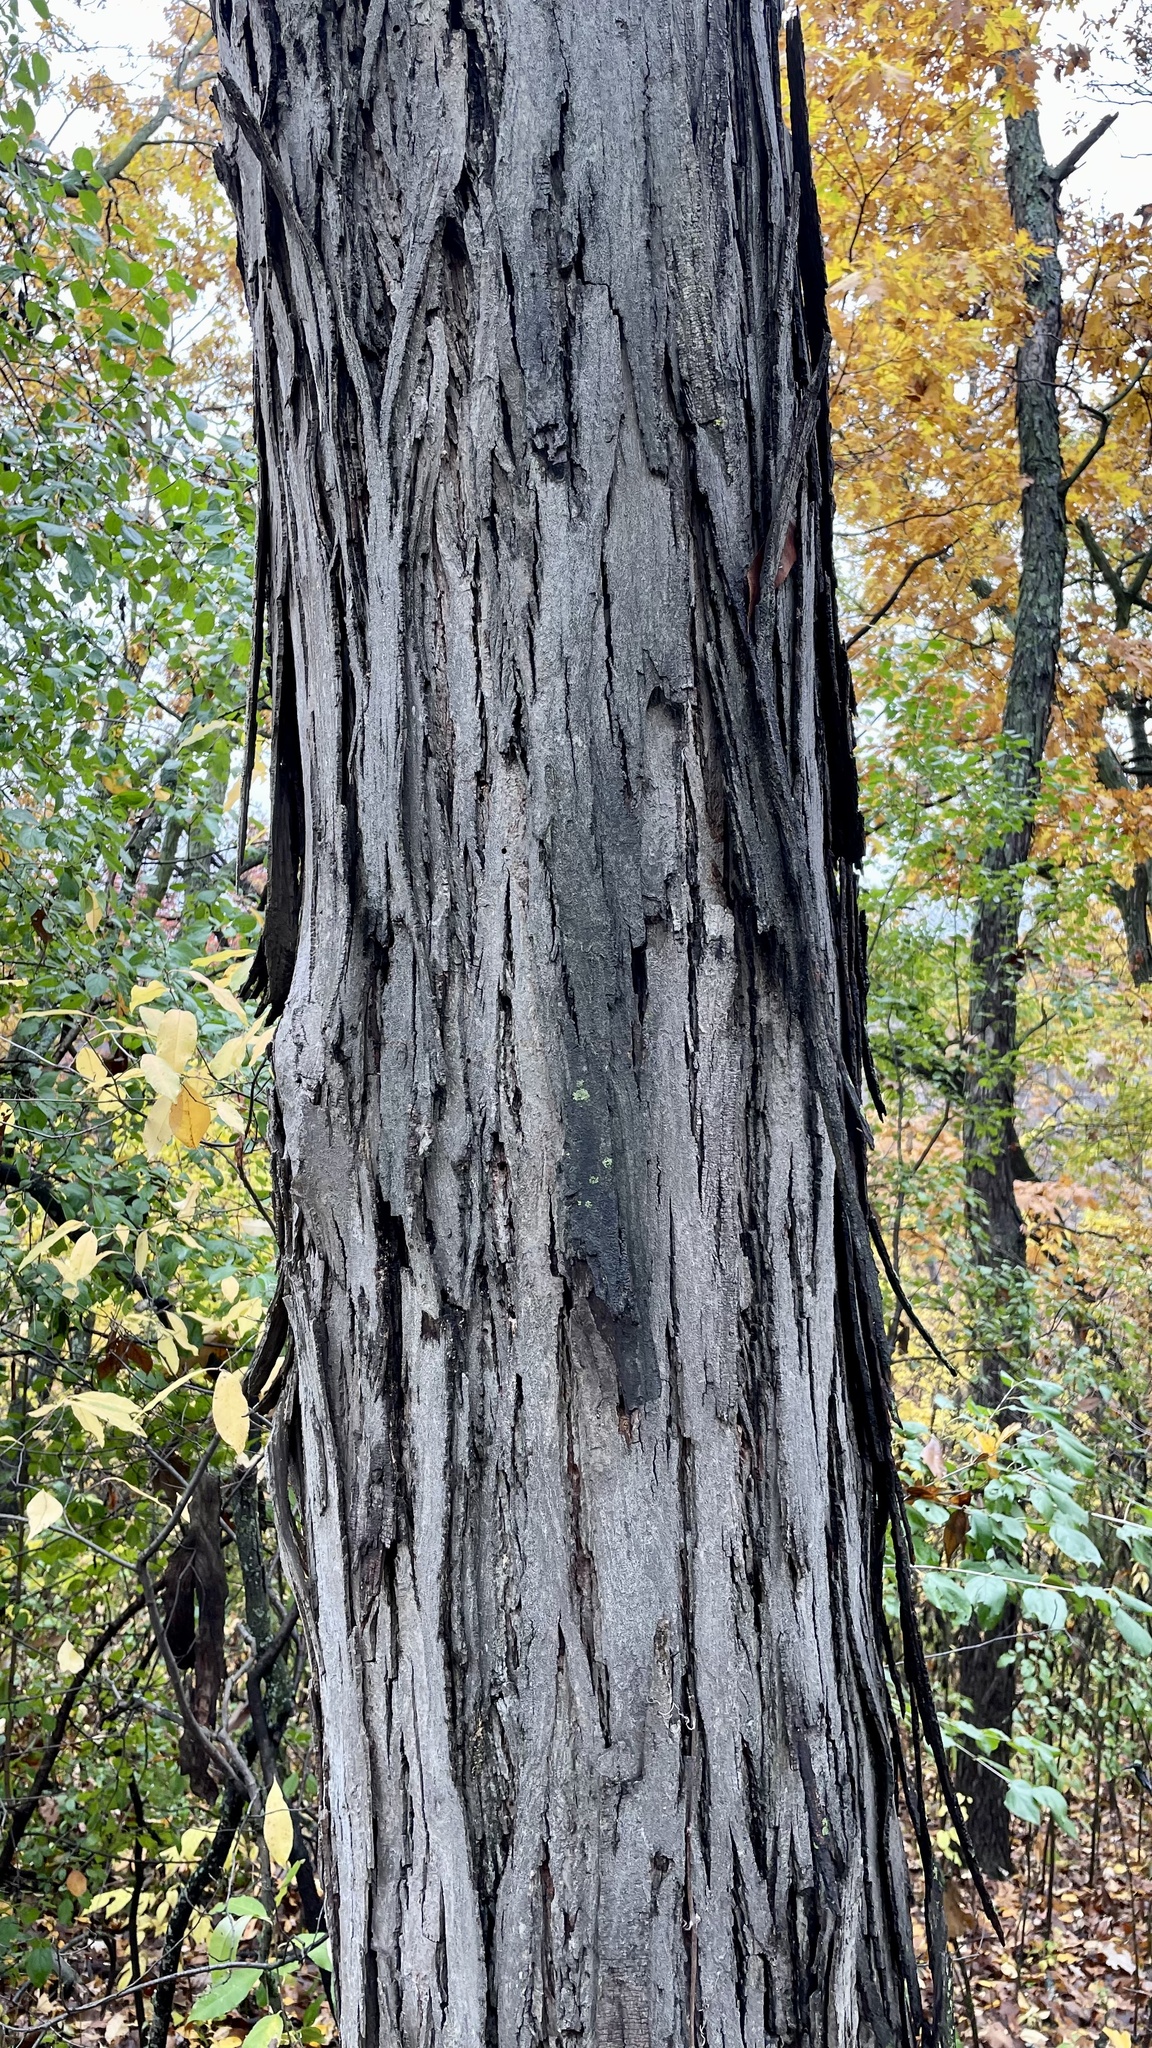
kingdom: Plantae
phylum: Tracheophyta
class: Magnoliopsida
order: Fagales
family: Juglandaceae
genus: Carya
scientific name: Carya ovata
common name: Shagbark hickory
